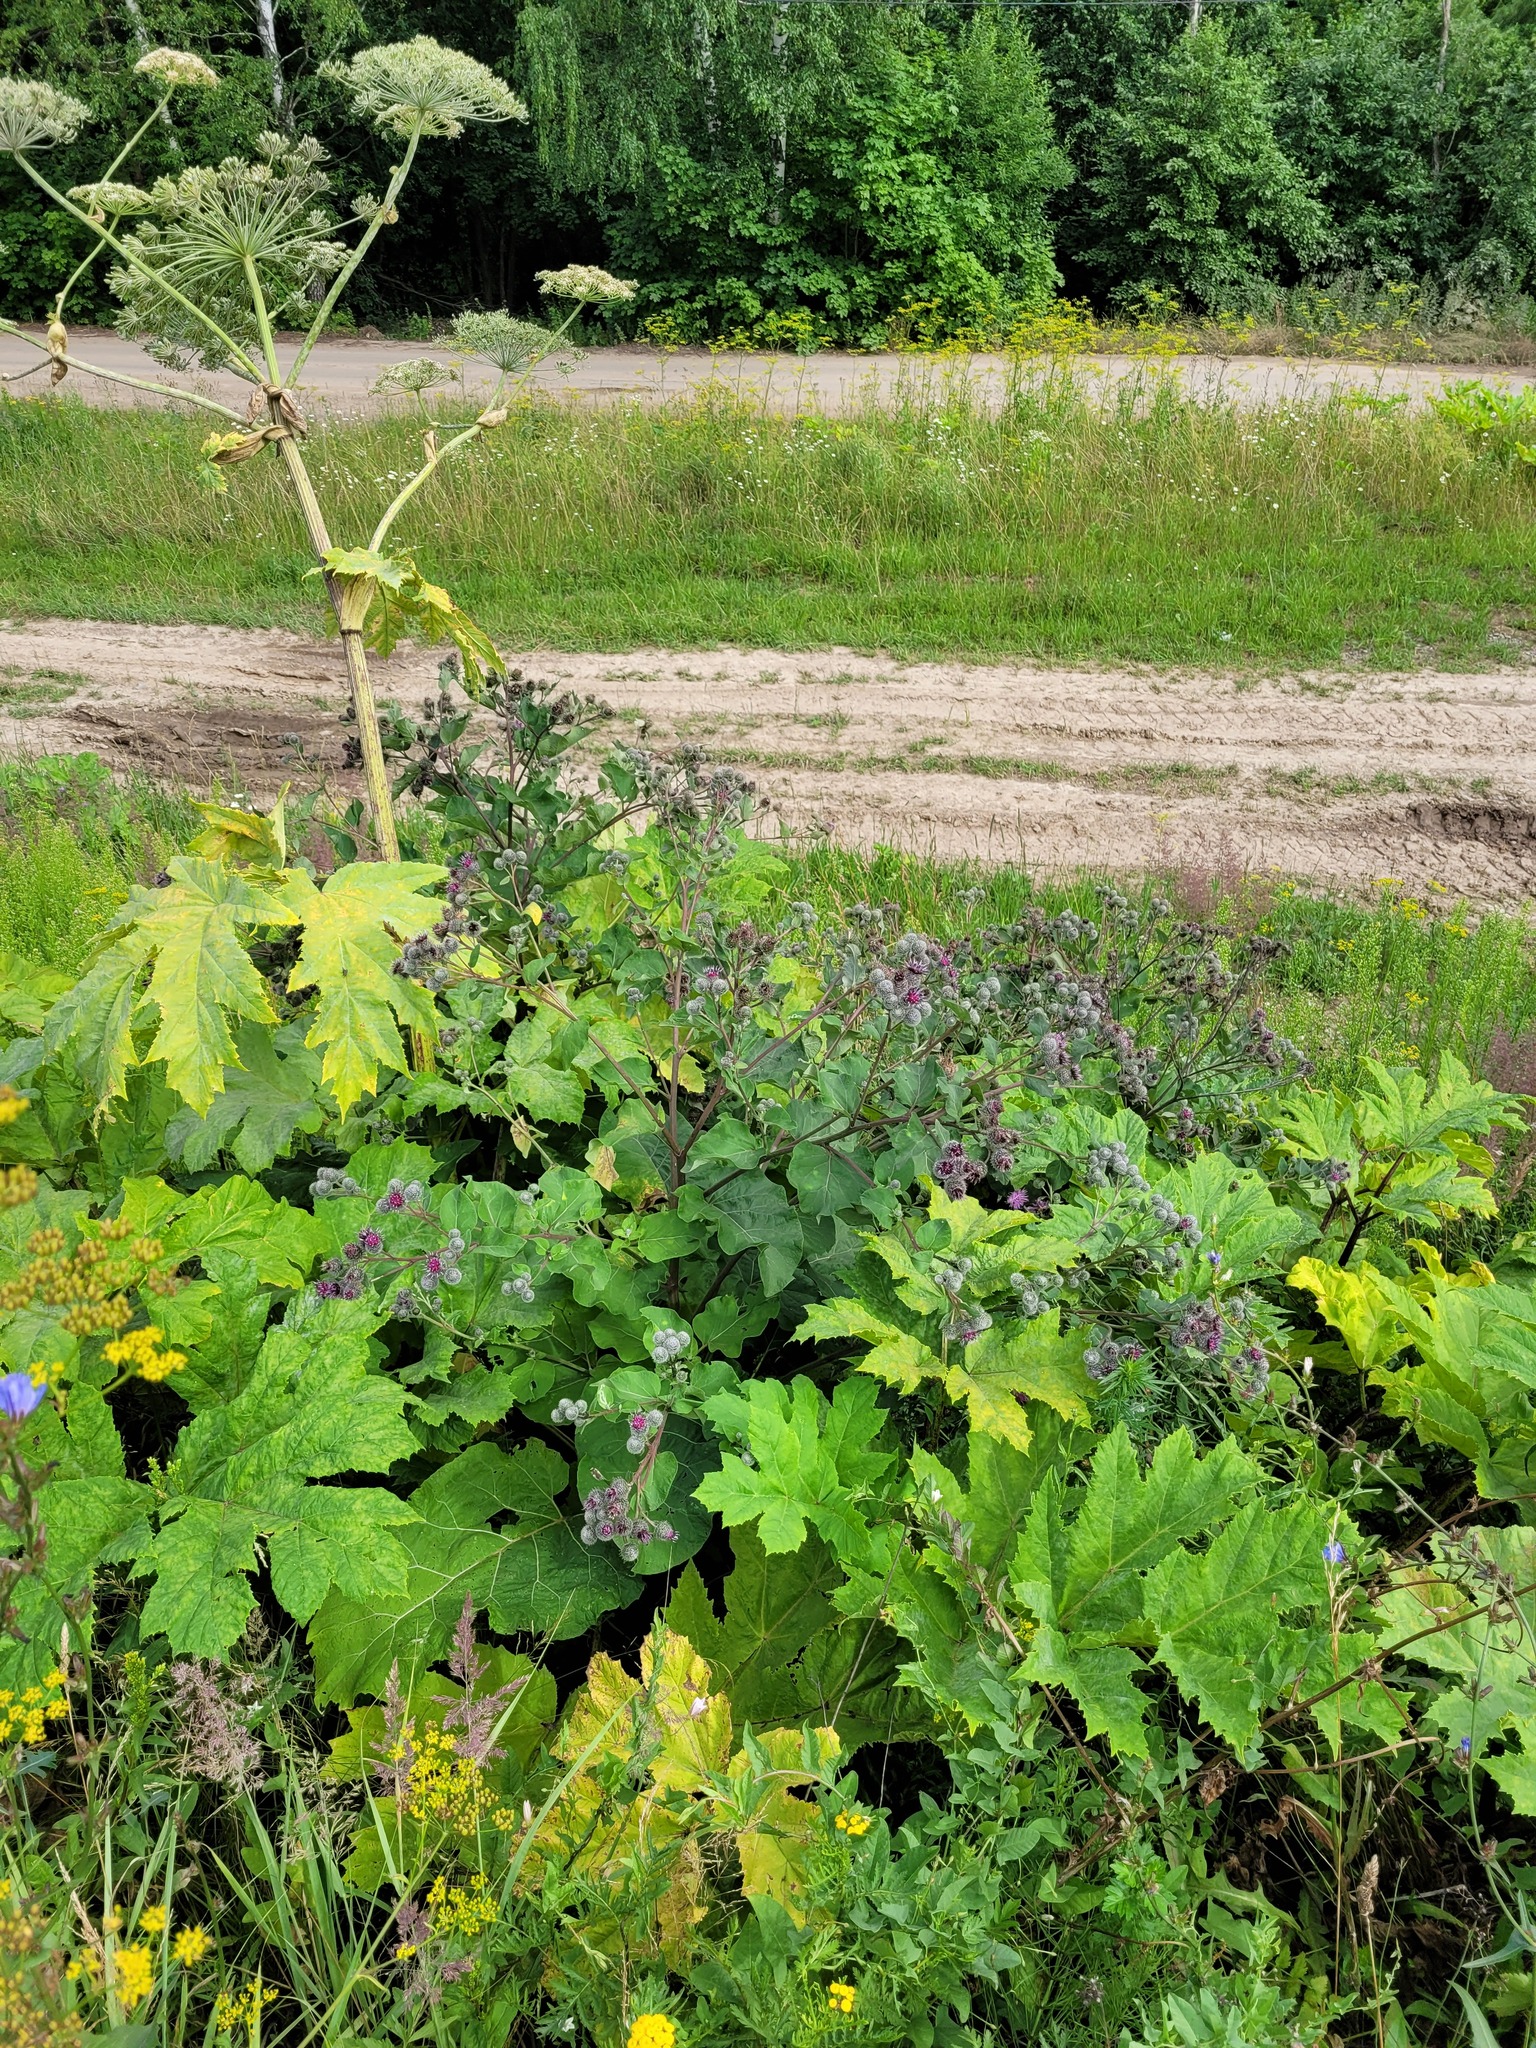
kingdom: Plantae
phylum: Tracheophyta
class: Magnoliopsida
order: Apiales
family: Apiaceae
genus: Heracleum
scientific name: Heracleum sosnowskyi
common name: Sosnowsky's hogweed
